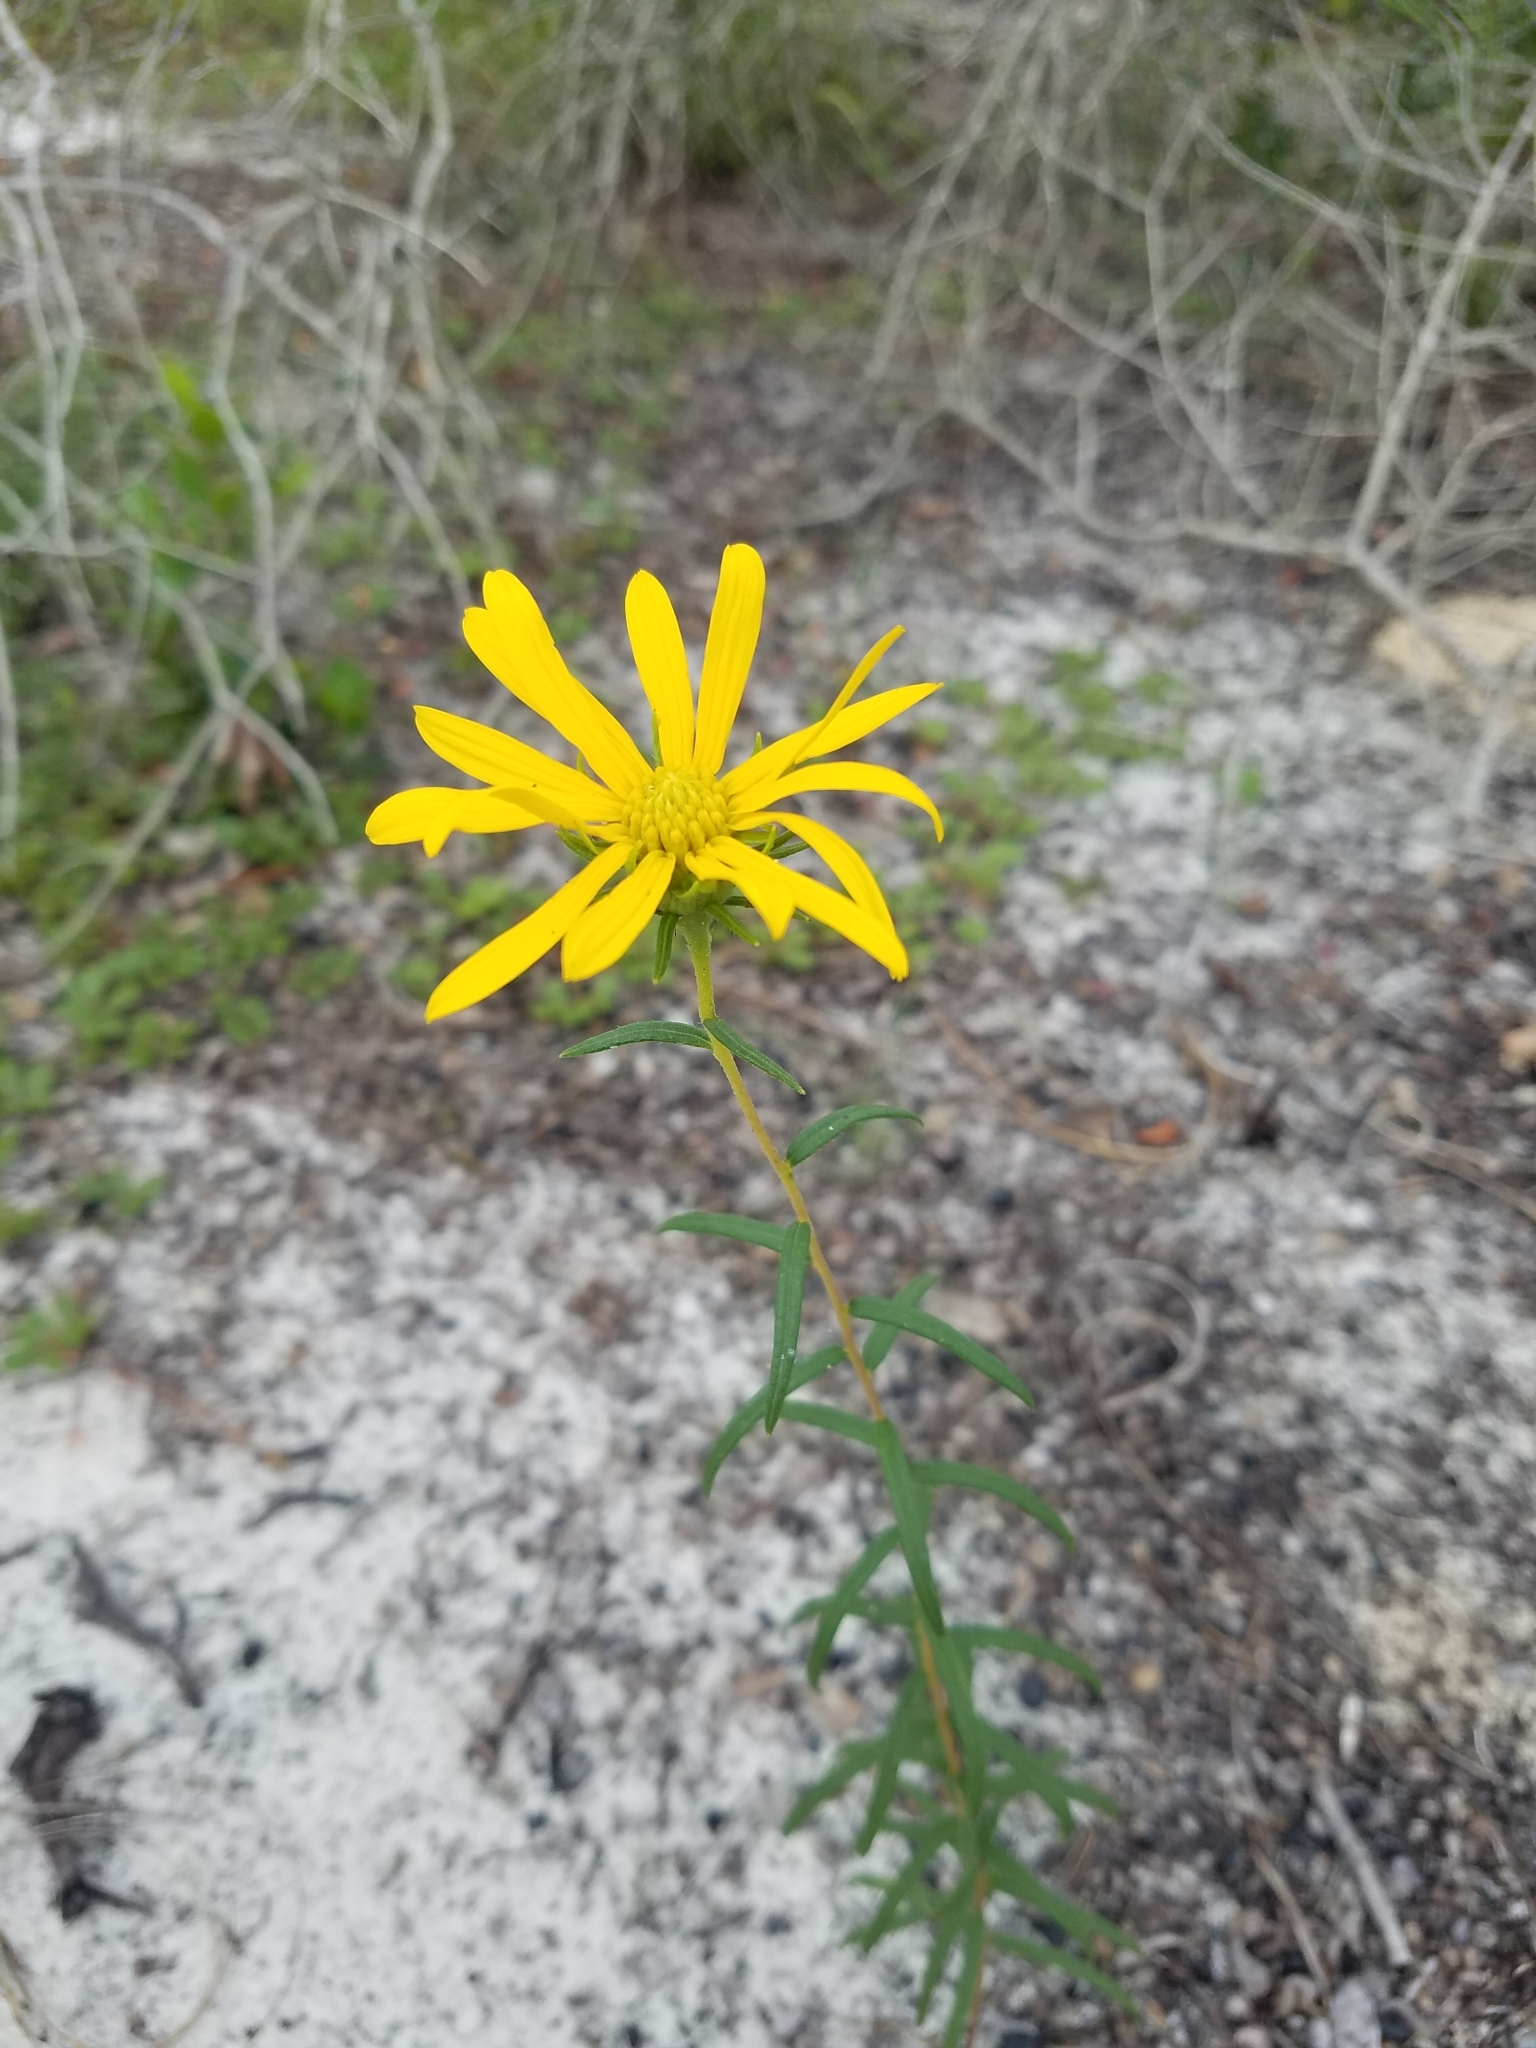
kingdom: Plantae
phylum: Tracheophyta
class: Magnoliopsida
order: Asterales
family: Asteraceae
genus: Phoebanthus
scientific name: Phoebanthus grandiflora
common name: Florida false sunflower
